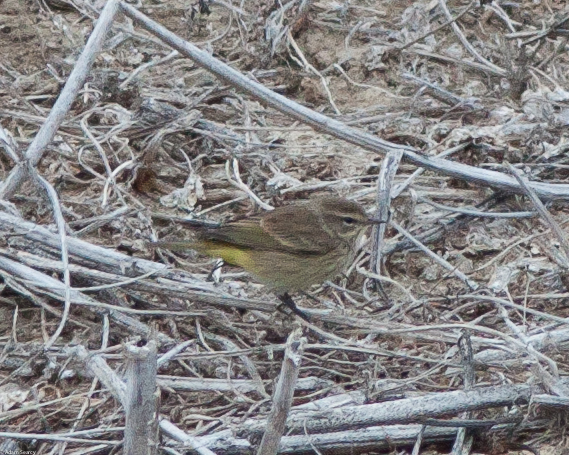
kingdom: Animalia
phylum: Chordata
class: Aves
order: Passeriformes
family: Parulidae
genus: Setophaga
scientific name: Setophaga palmarum
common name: Palm warbler
